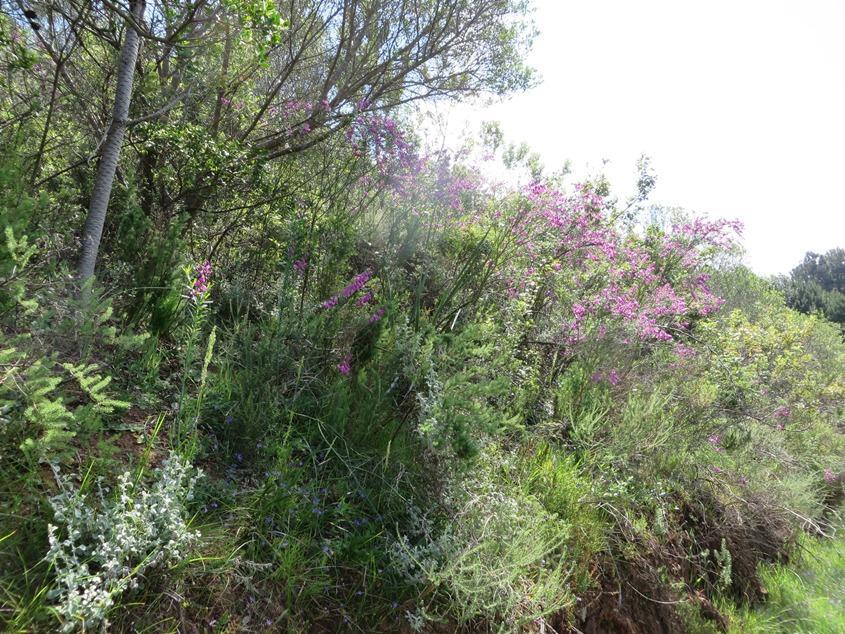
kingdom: Plantae
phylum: Tracheophyta
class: Magnoliopsida
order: Fabales
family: Polygalaceae
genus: Polygala
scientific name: Polygala virgata
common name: Milkwort
